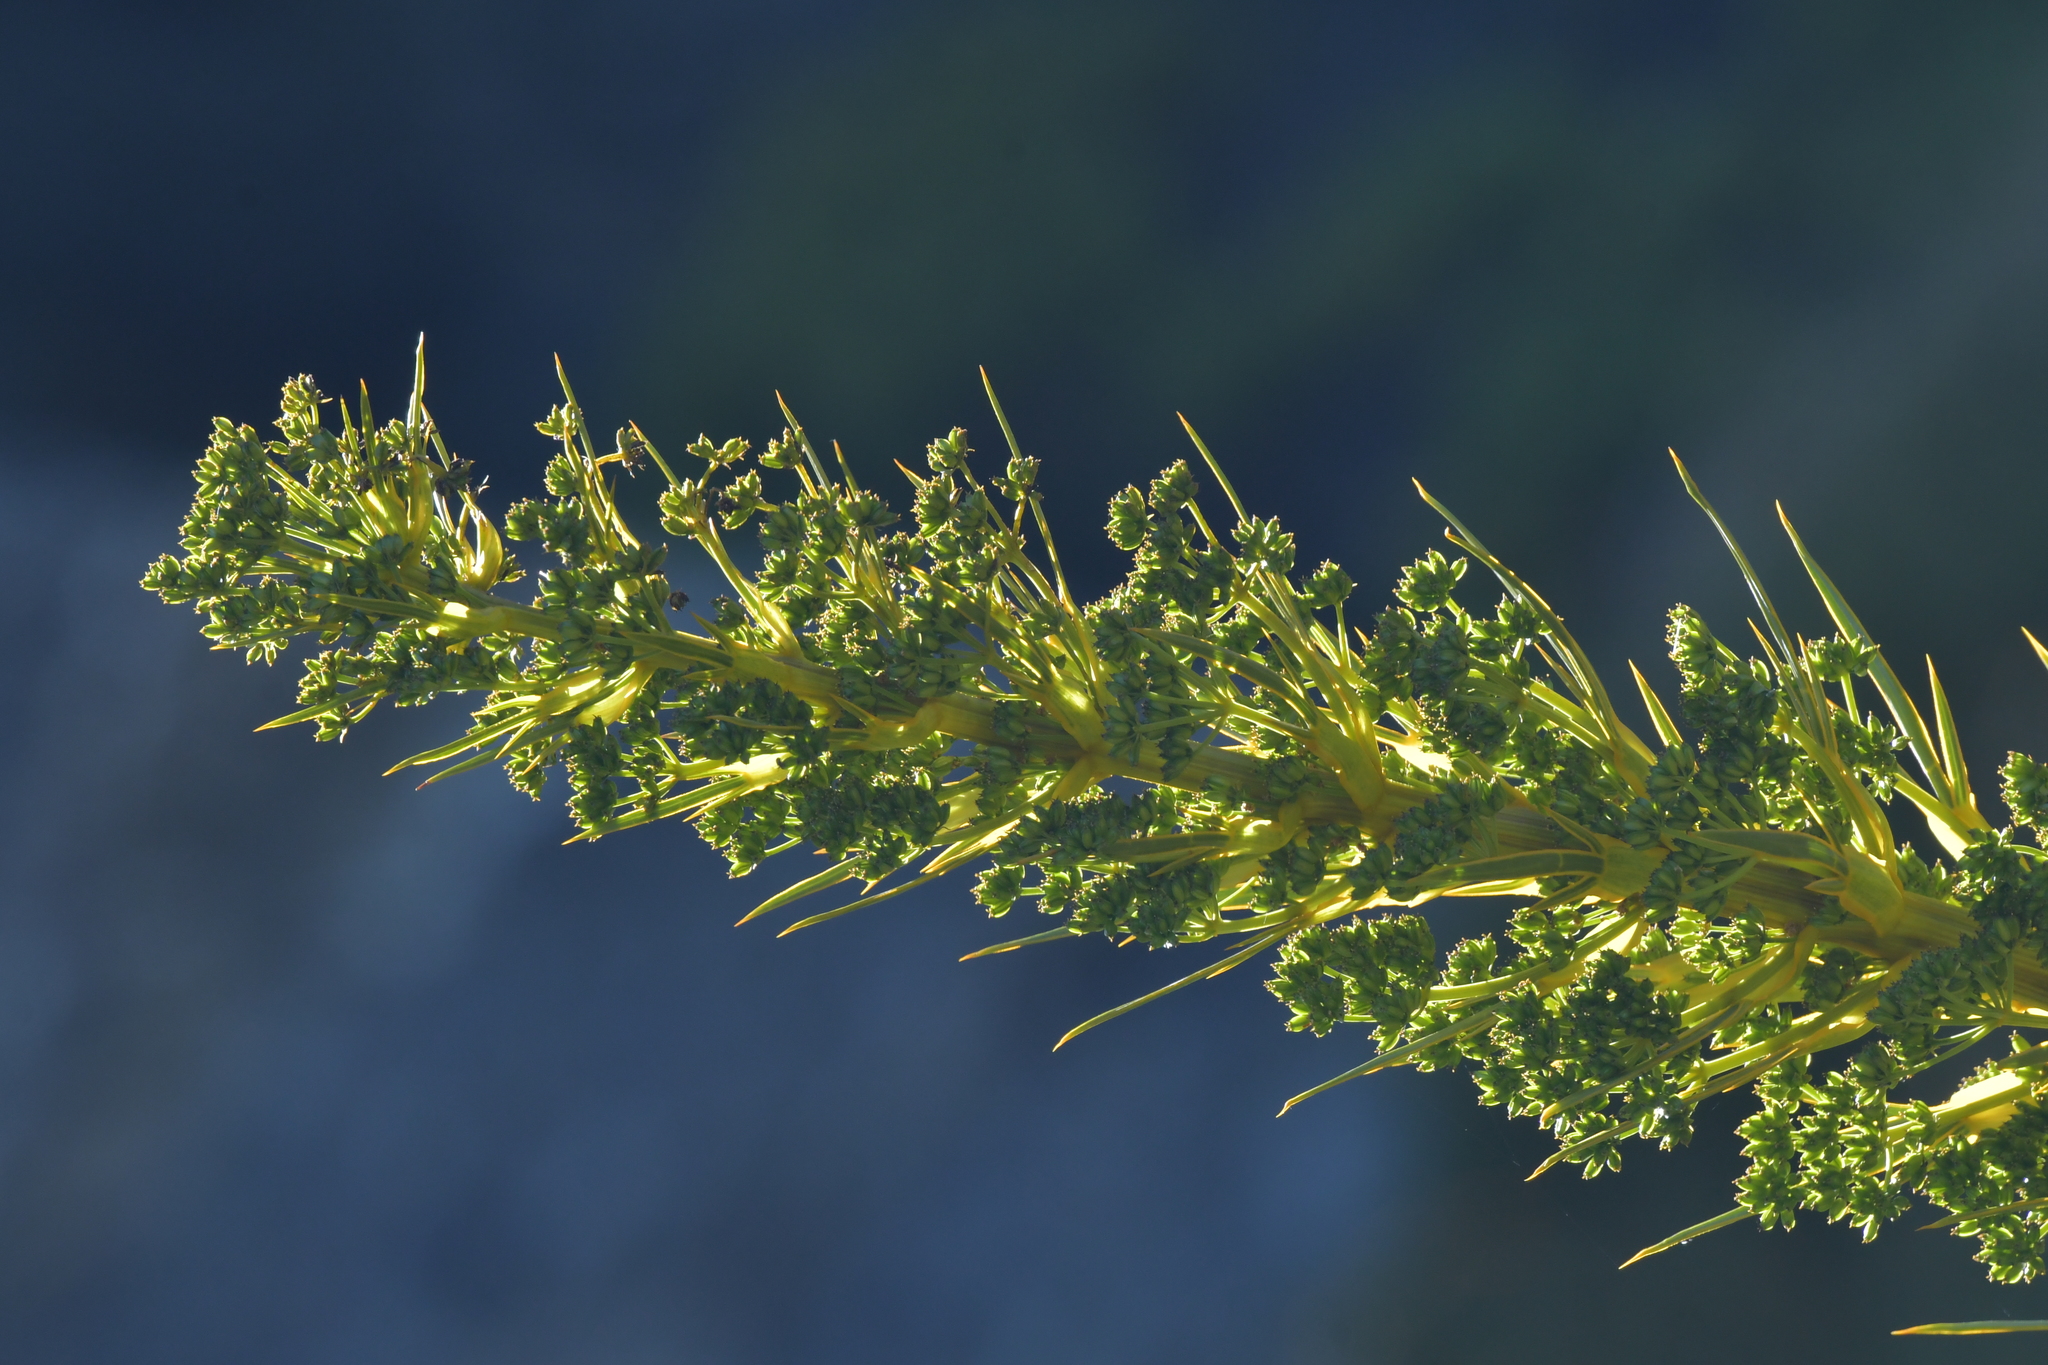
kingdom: Plantae
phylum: Tracheophyta
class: Magnoliopsida
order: Apiales
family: Apiaceae
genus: Aciphylla
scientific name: Aciphylla horrida
